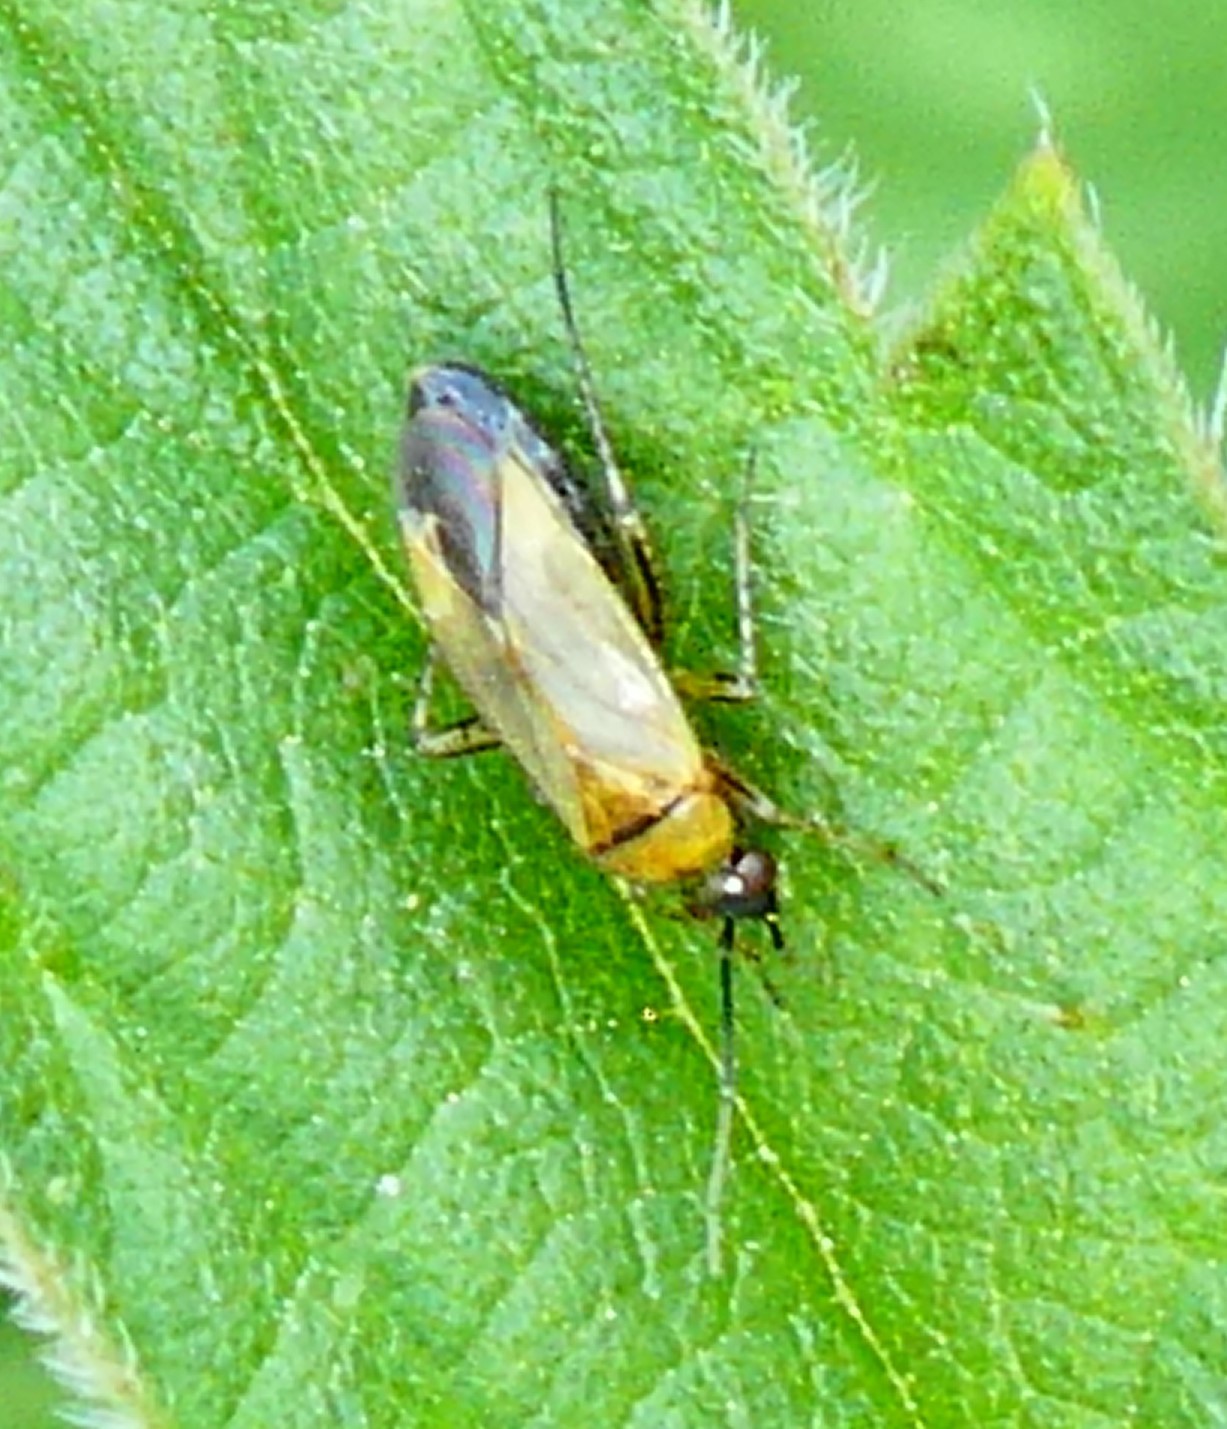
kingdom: Animalia
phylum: Arthropoda
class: Insecta
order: Hemiptera
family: Miridae
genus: Plagiognathus
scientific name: Plagiognathus arbustorum
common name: Plant bug
